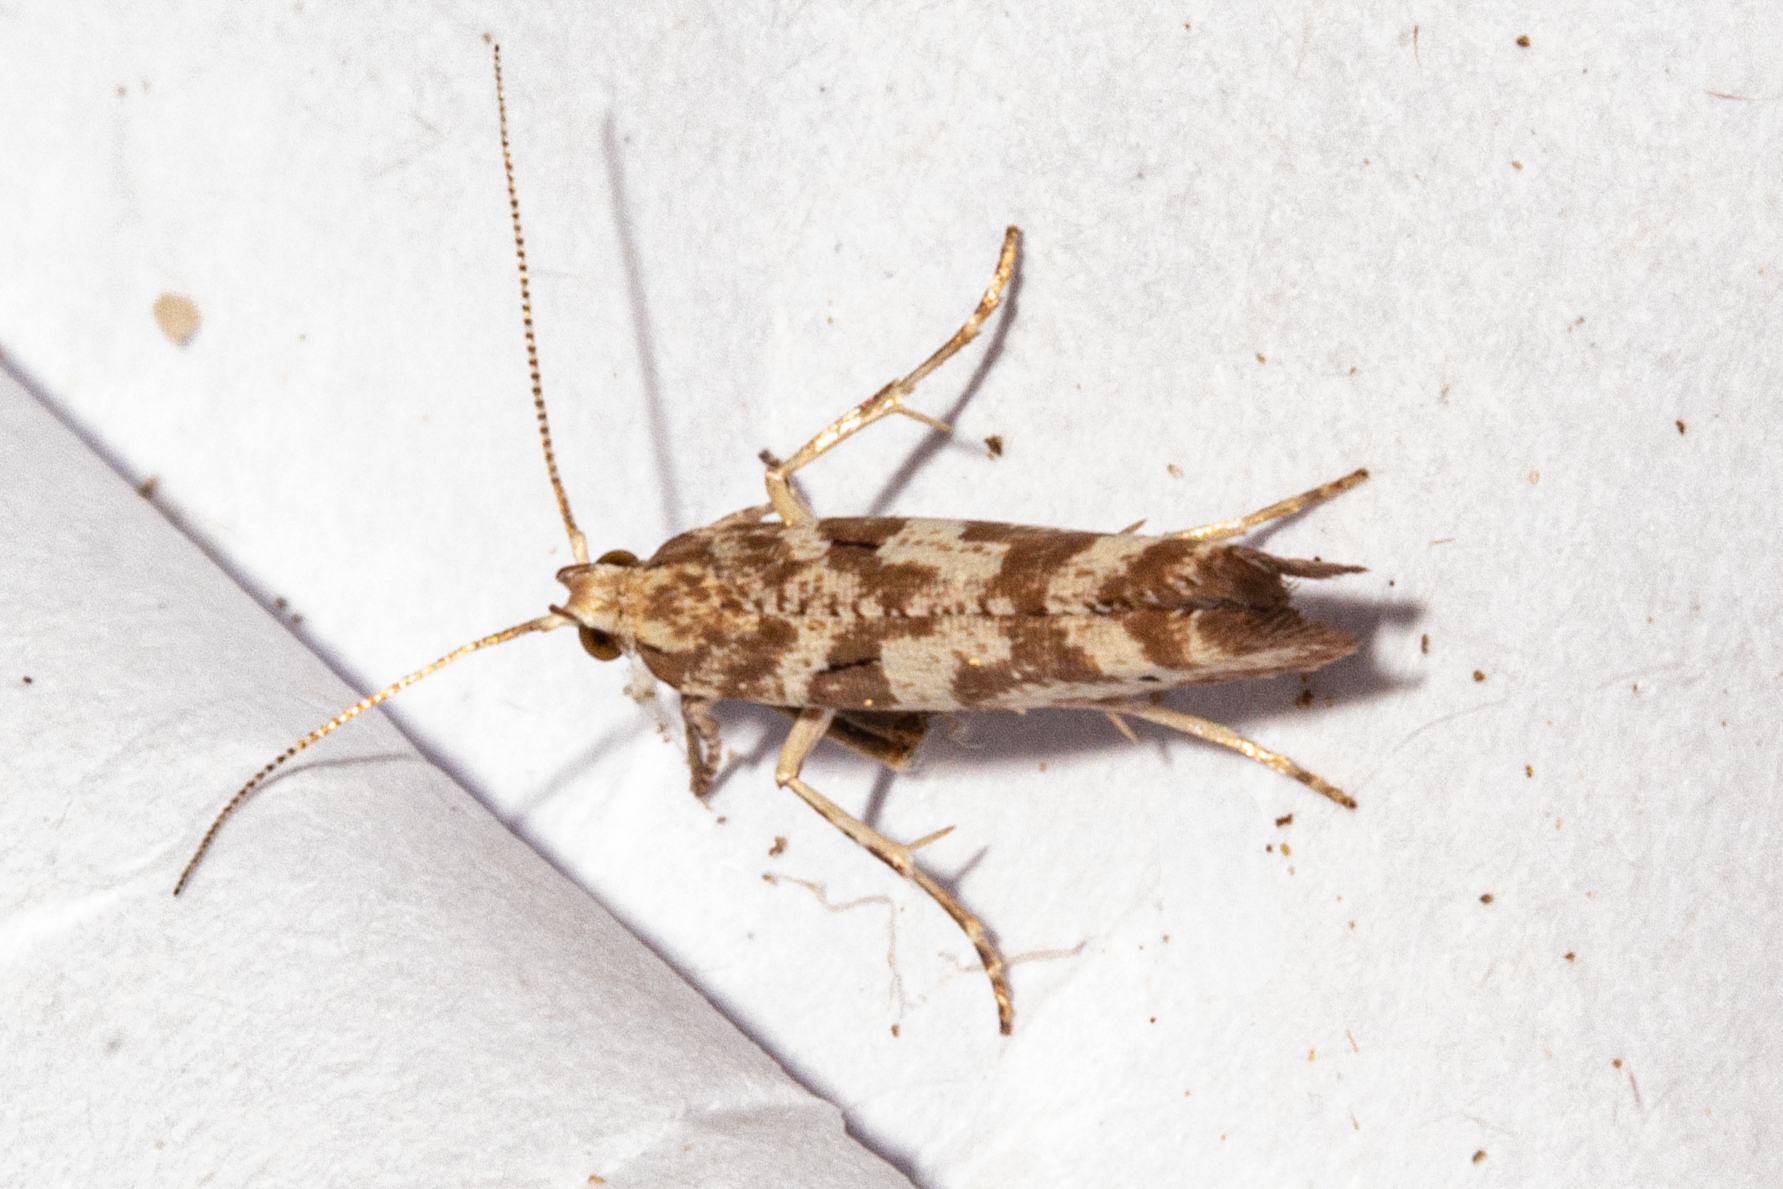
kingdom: Animalia
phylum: Arthropoda
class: Insecta
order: Lepidoptera
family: Glyphipterigidae
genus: Chrysorthenches
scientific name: Chrysorthenches porphyritis
